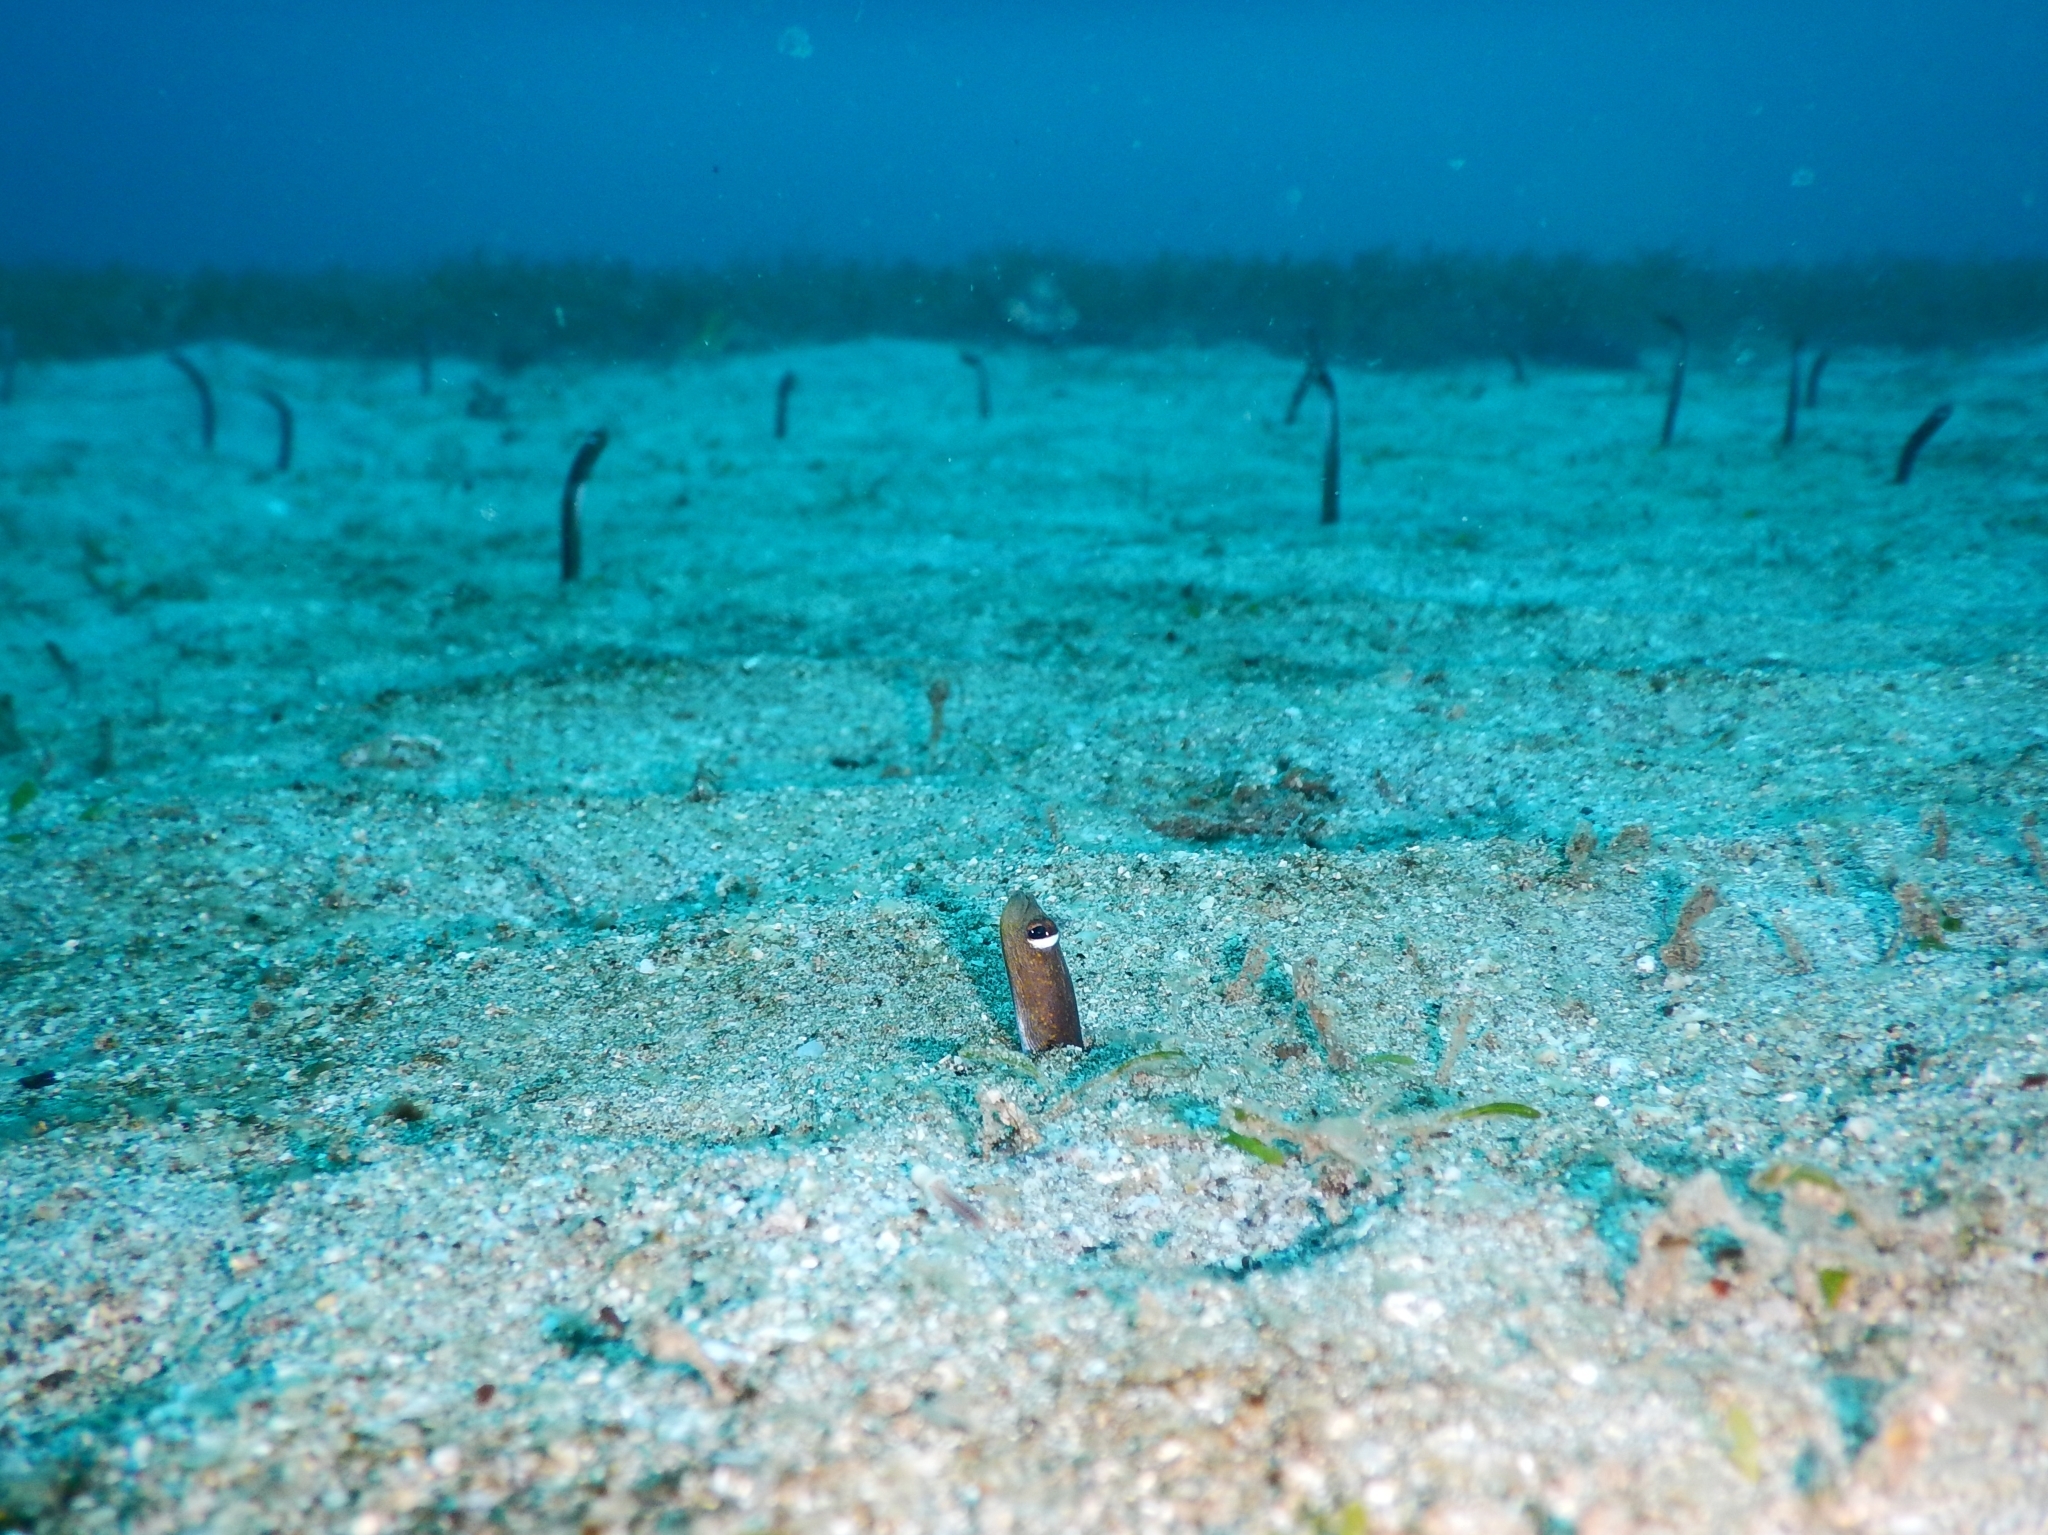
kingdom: Animalia
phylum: Chordata
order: Anguilliformes
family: Congridae
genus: Heteroconger
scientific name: Heteroconger longissimus
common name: Garden eel
